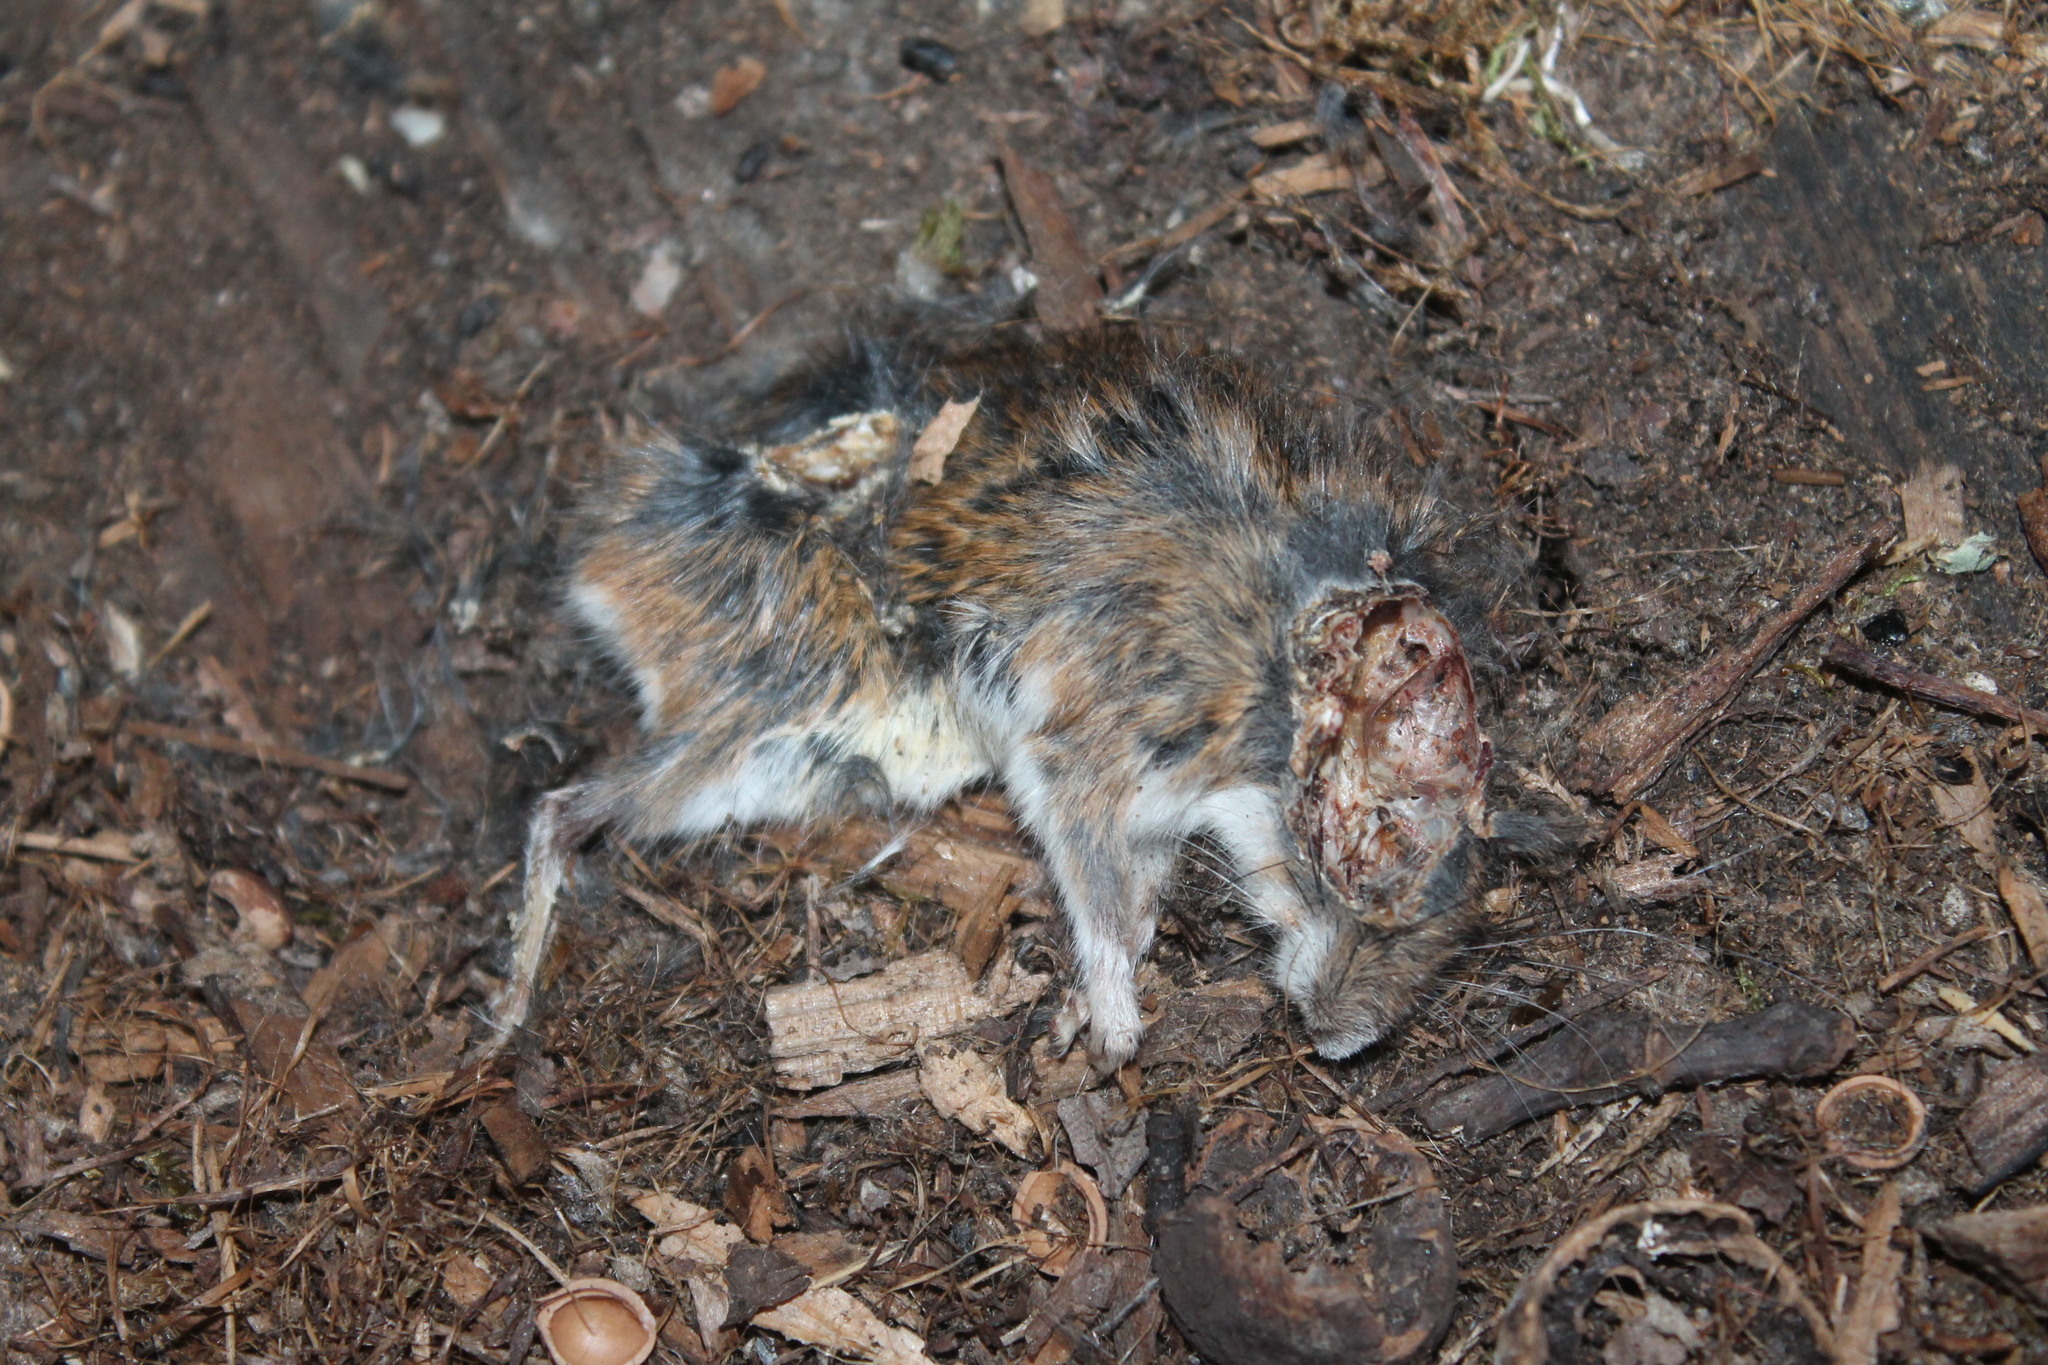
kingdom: Animalia
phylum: Chordata
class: Mammalia
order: Rodentia
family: Cricetidae
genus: Peromyscus
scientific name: Peromyscus leucopus
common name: White-footed deermouse
